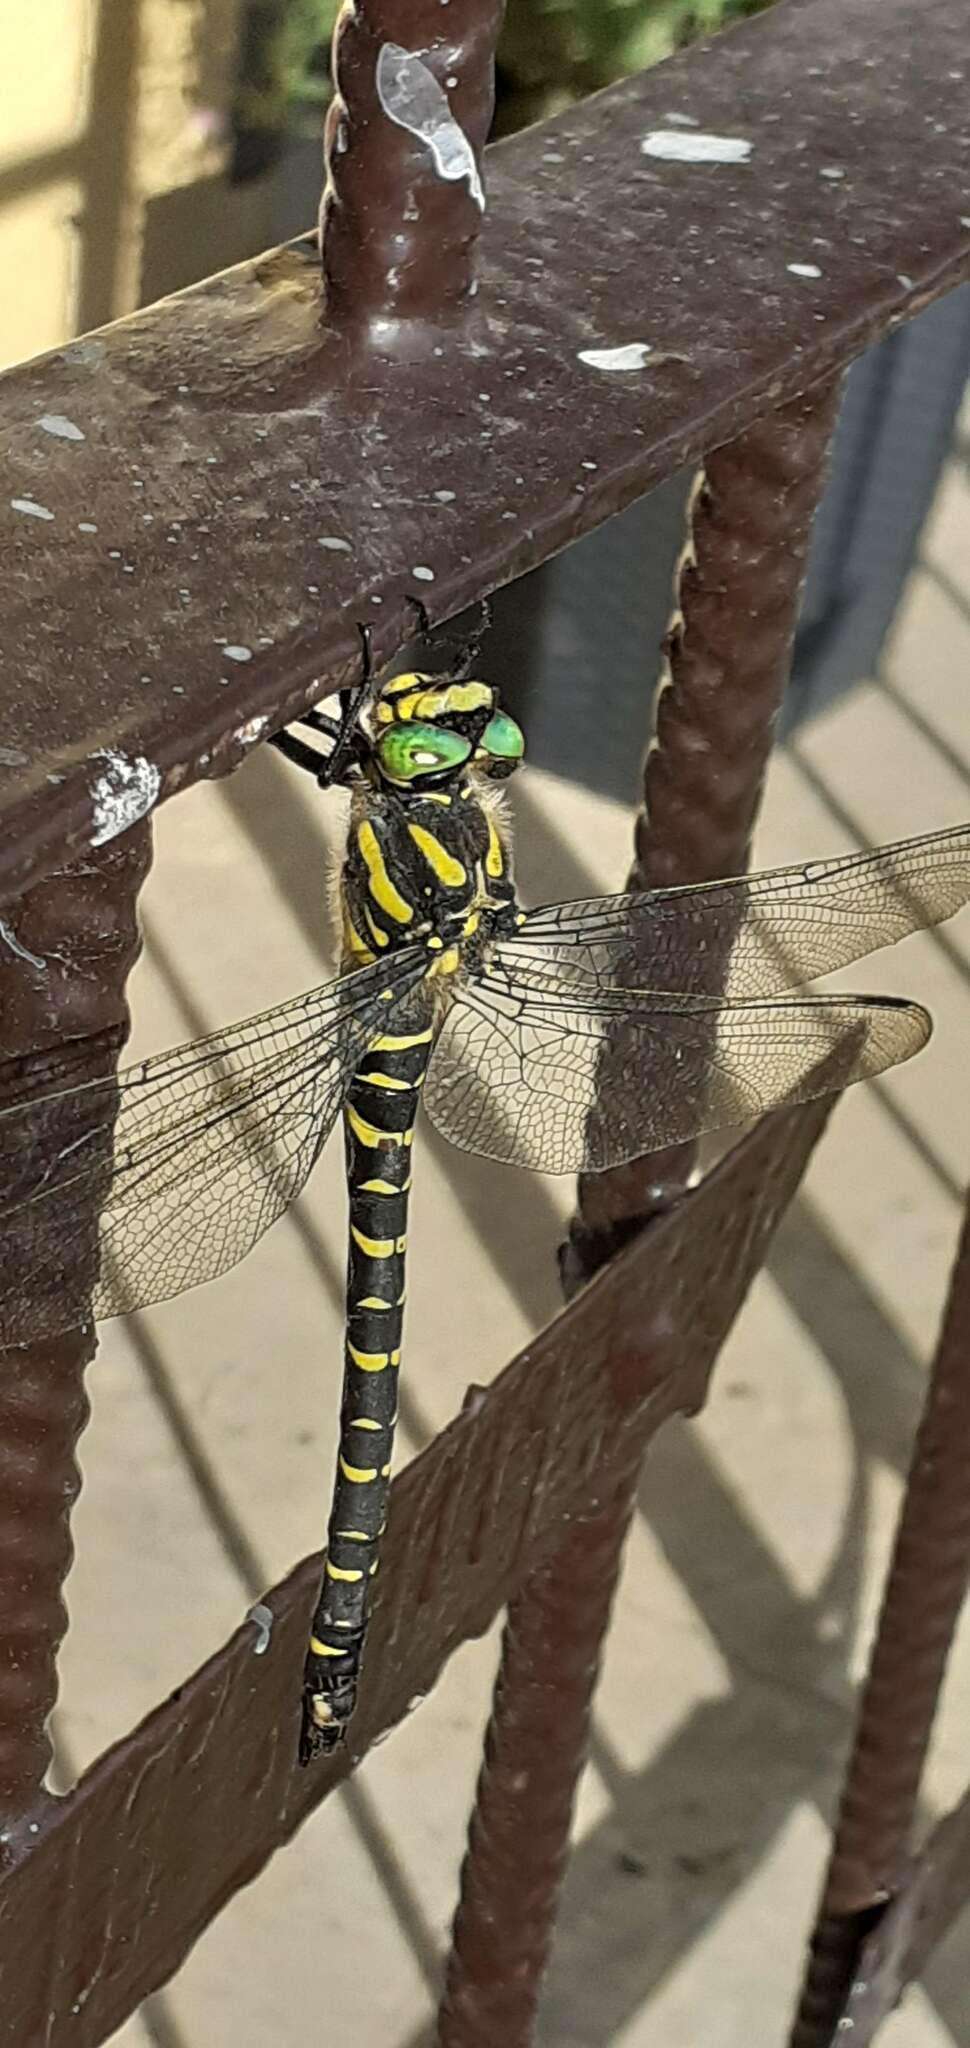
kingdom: Animalia
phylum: Arthropoda
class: Insecta
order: Odonata
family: Cordulegastridae
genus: Cordulegaster
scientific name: Cordulegaster boltonii
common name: Golden-ringed dragonfly
